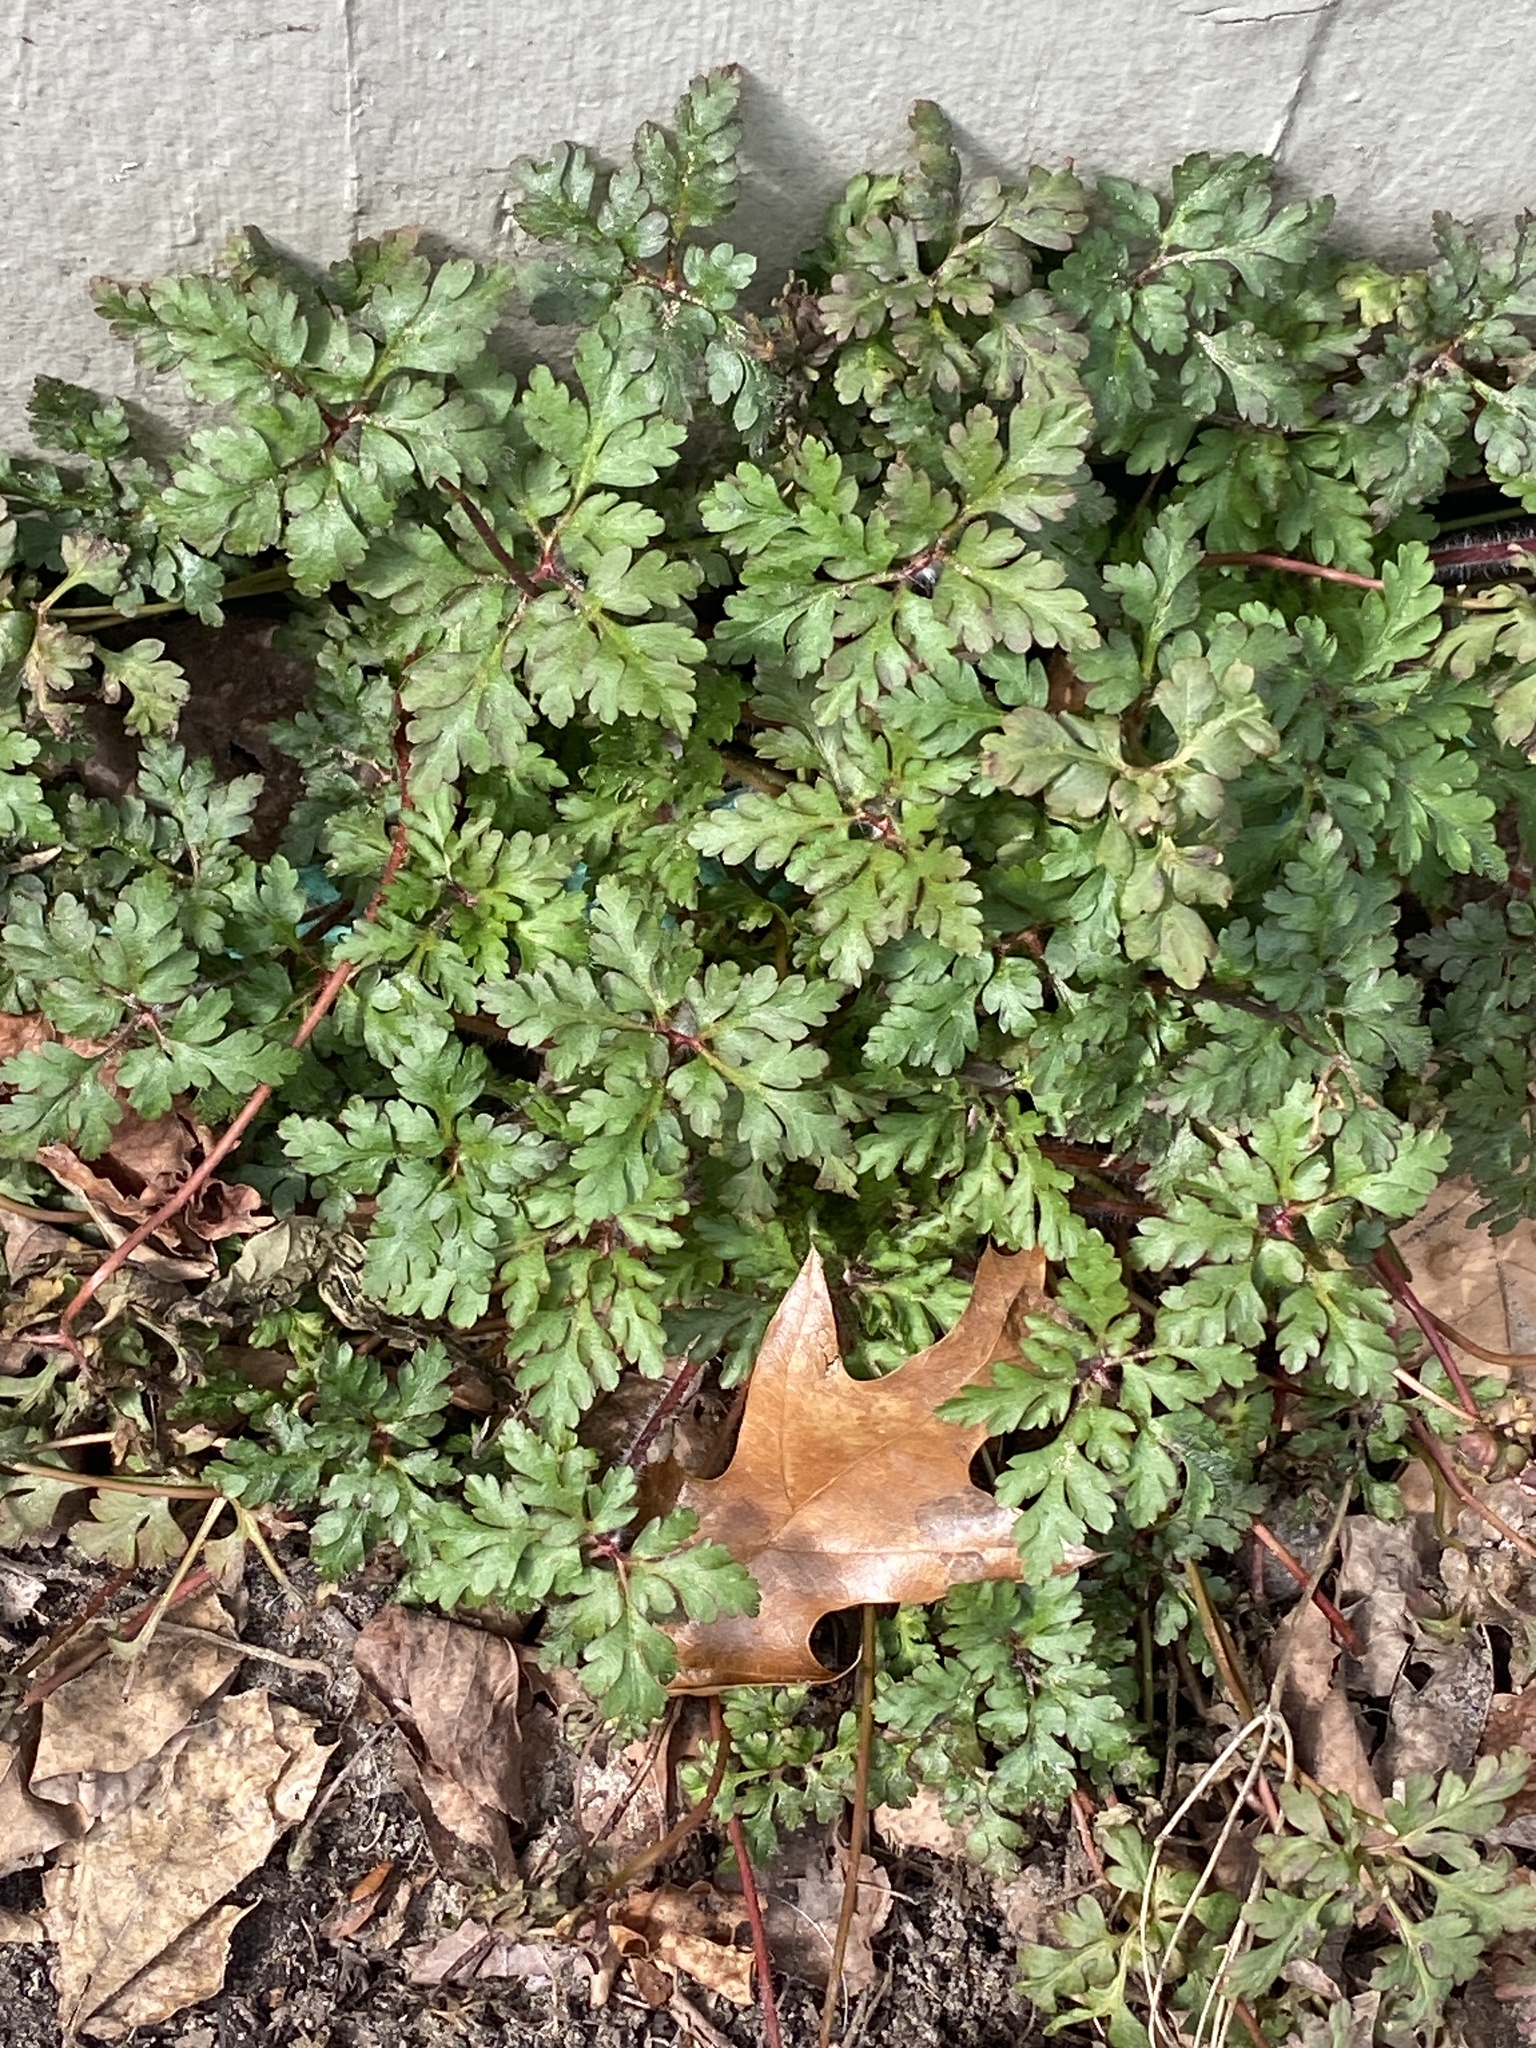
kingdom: Plantae
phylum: Tracheophyta
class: Magnoliopsida
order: Geraniales
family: Geraniaceae
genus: Geranium
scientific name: Geranium robertianum
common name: Herb-robert
